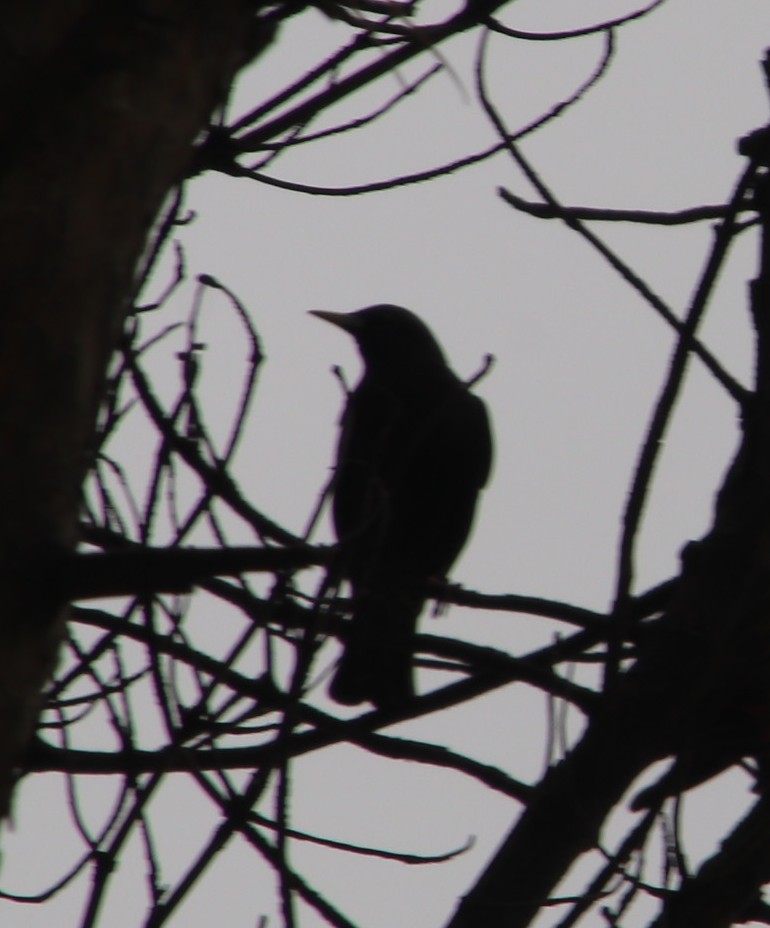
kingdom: Animalia
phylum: Chordata
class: Aves
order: Passeriformes
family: Sturnidae
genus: Sturnus
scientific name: Sturnus vulgaris
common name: Common starling
